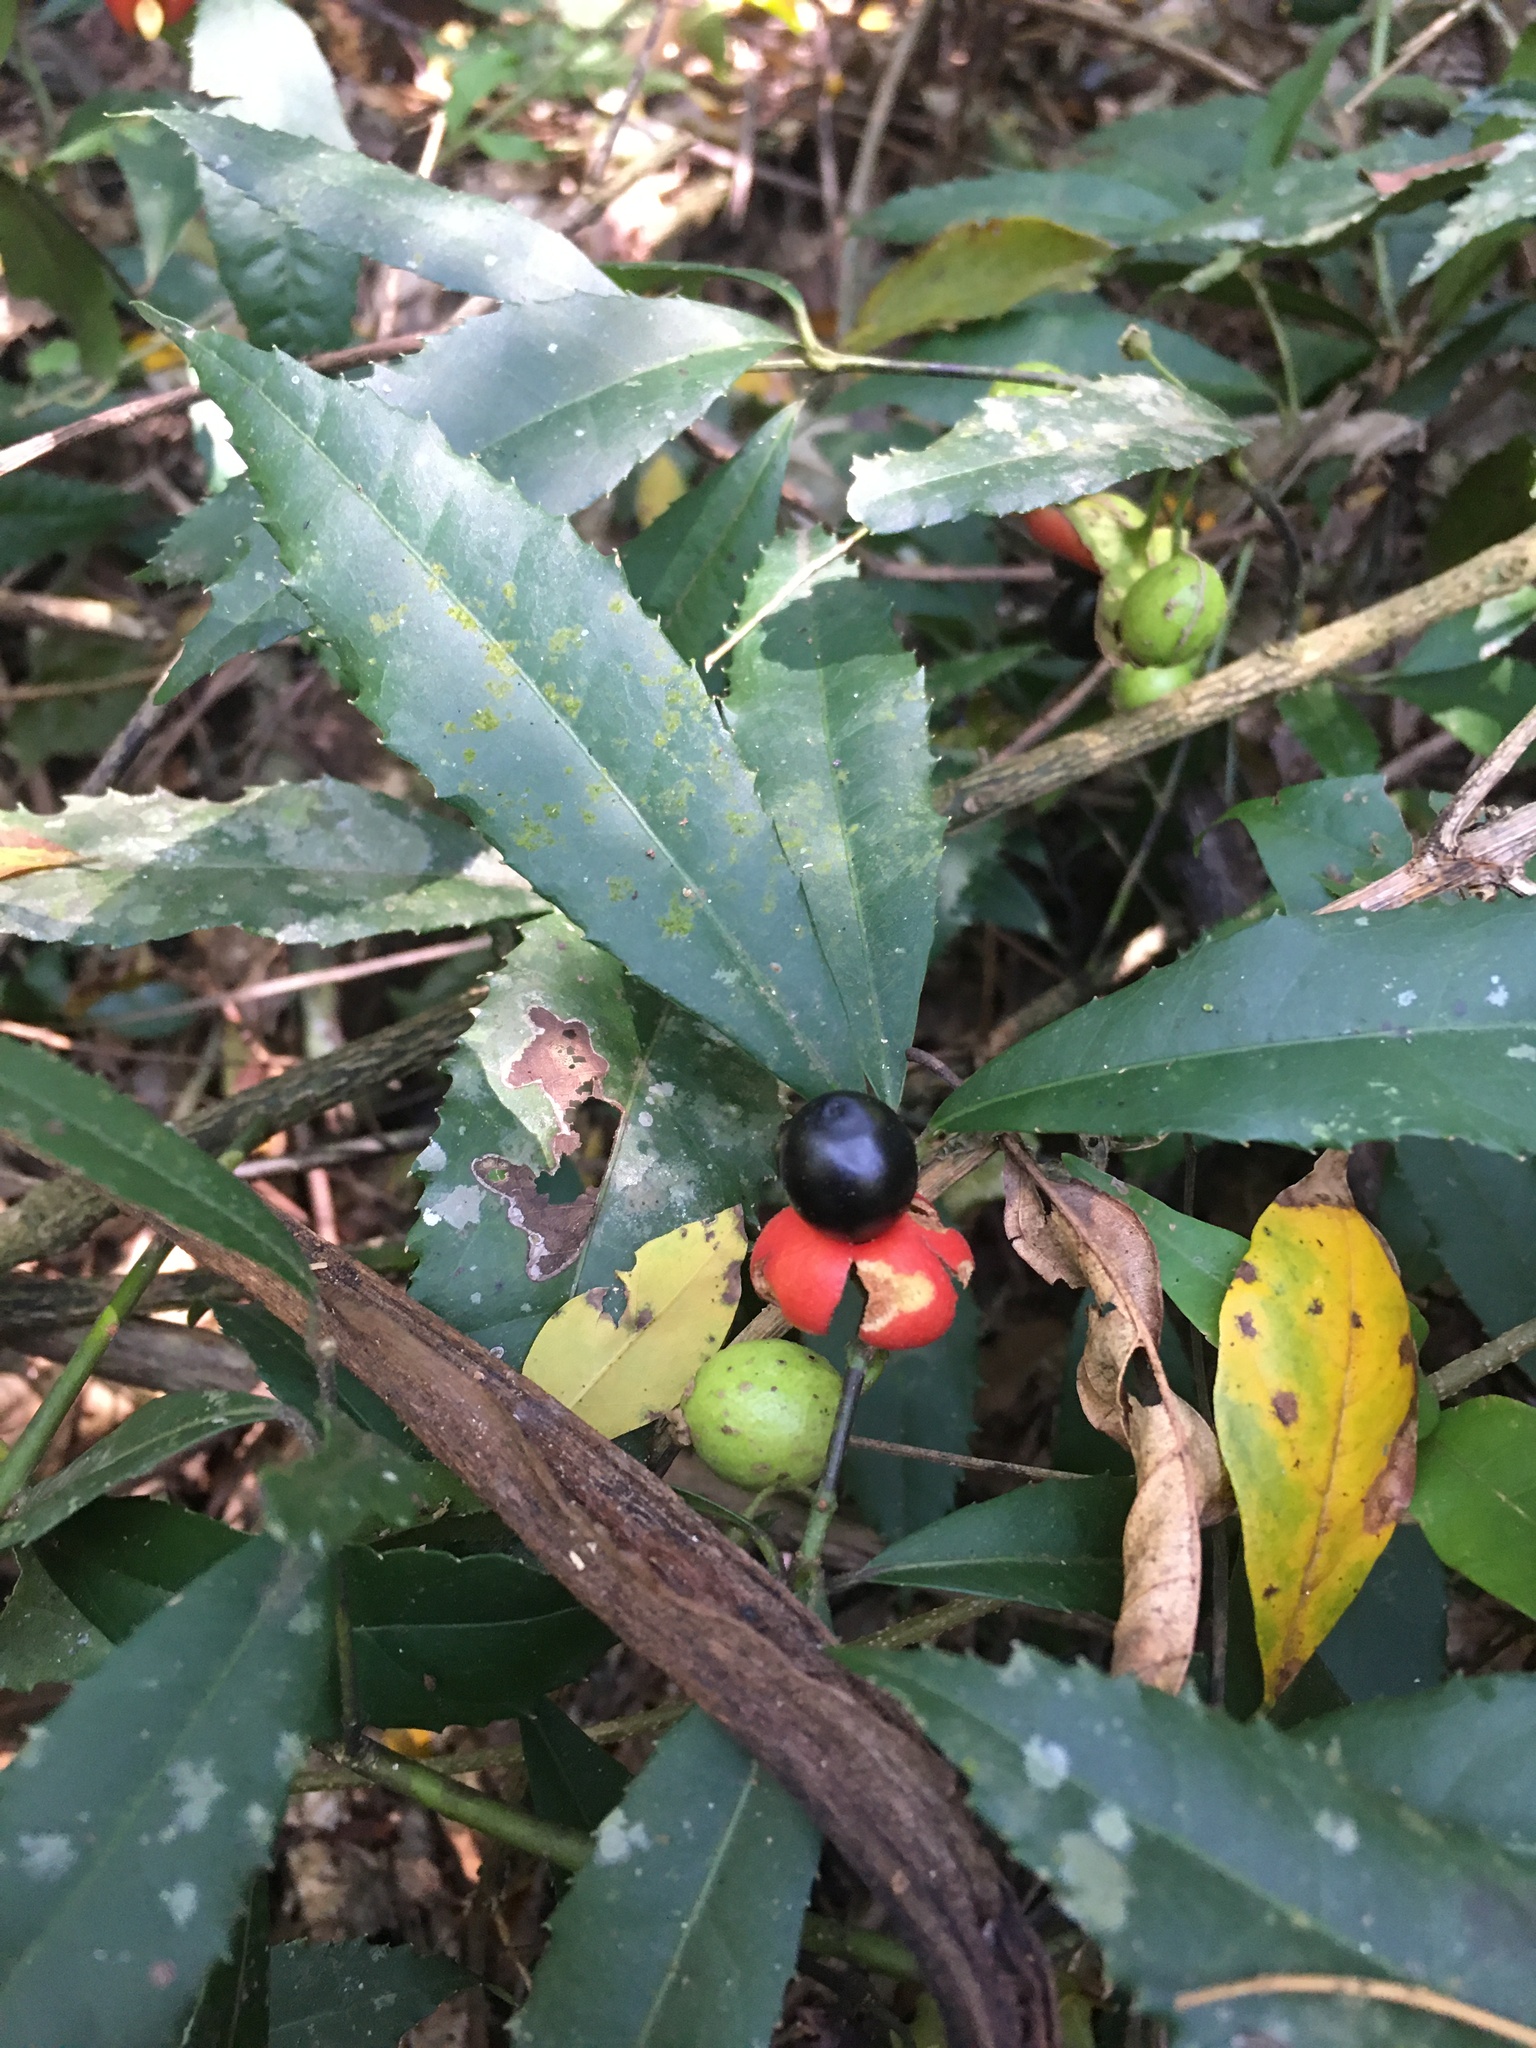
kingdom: Plantae
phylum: Tracheophyta
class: Magnoliopsida
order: Laurales
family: Monimiaceae
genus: Hennecartia
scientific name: Hennecartia omphalandra
